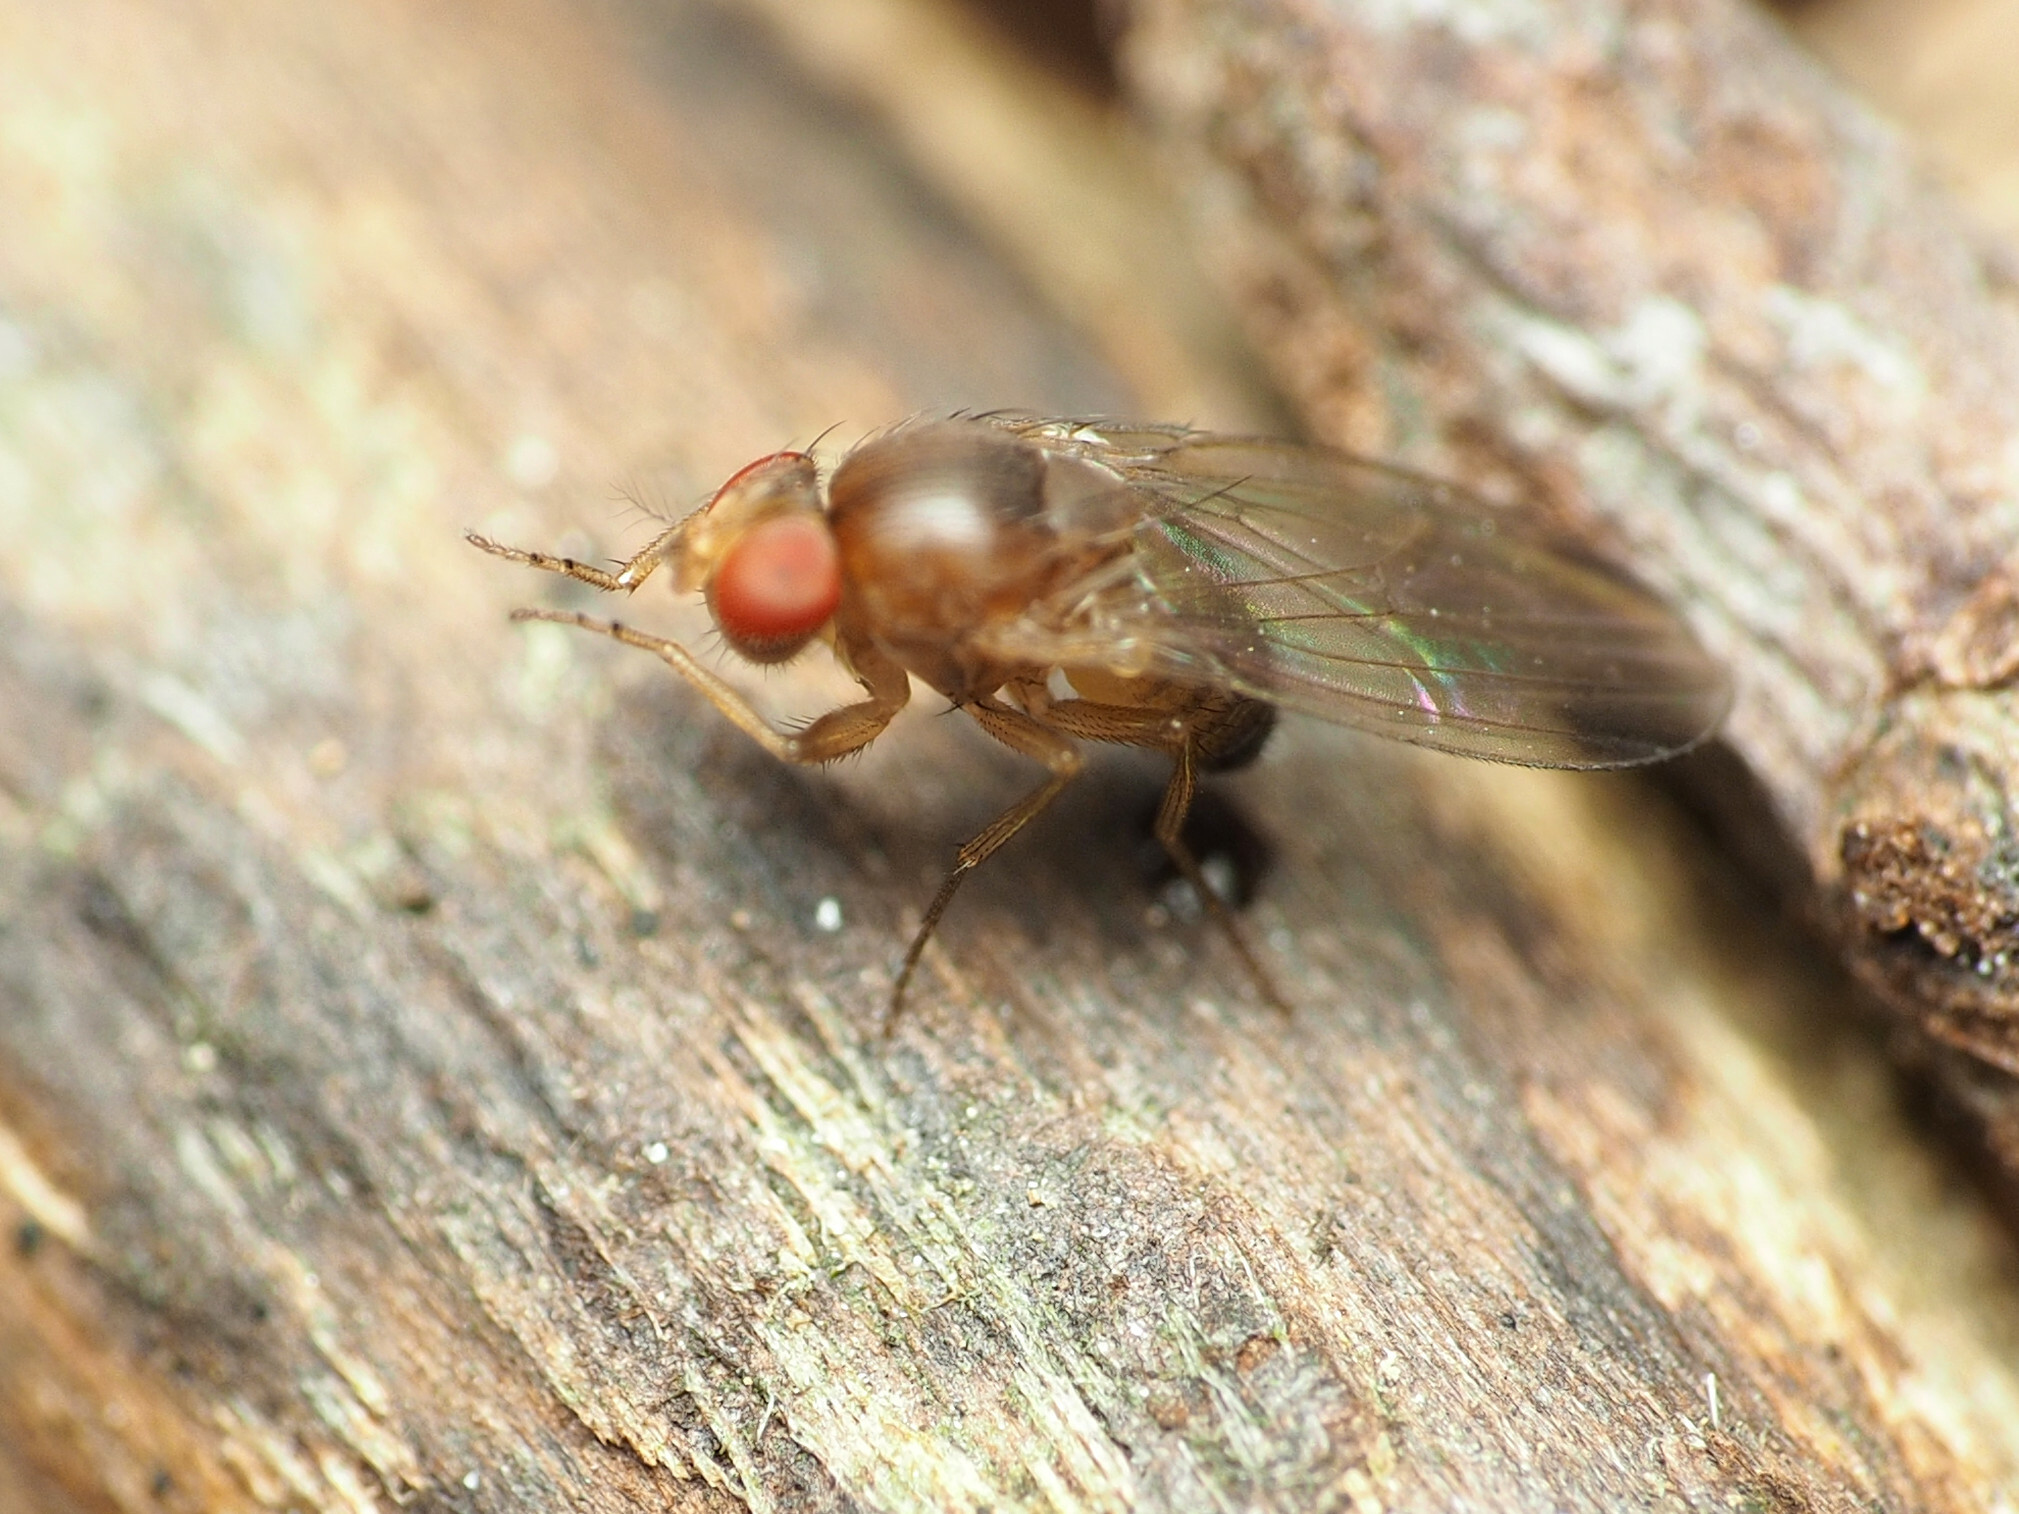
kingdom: Animalia
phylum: Arthropoda
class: Insecta
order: Diptera
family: Drosophilidae
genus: Drosophila
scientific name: Drosophila suzukii
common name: Spotted-wing drosophila
